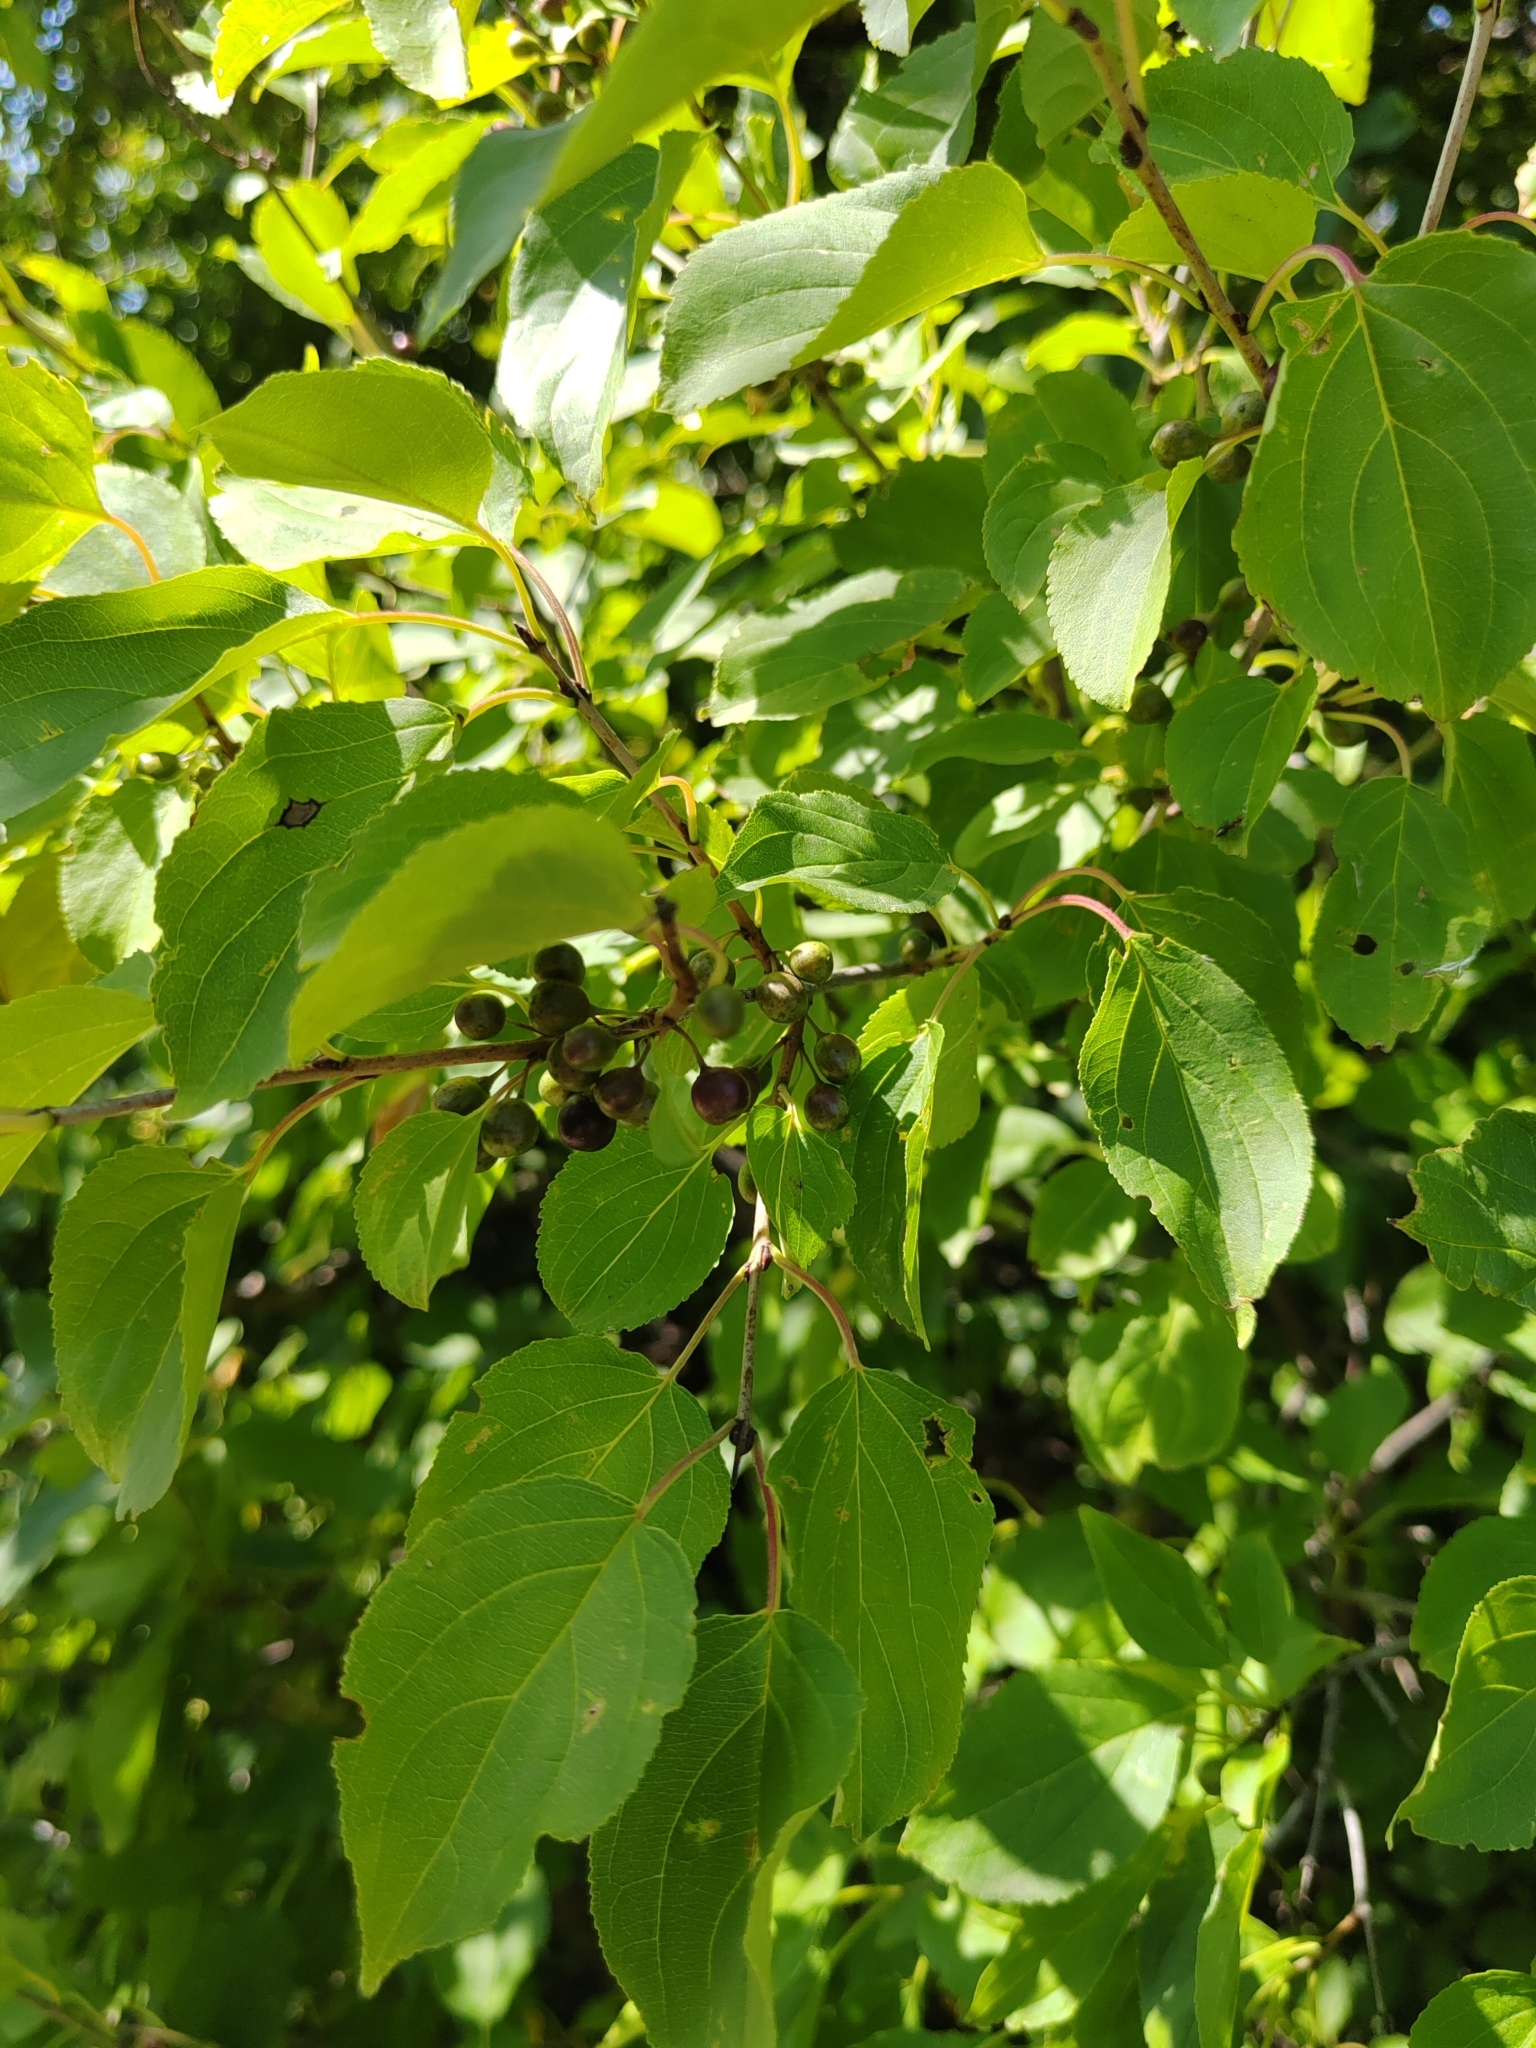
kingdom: Plantae
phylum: Tracheophyta
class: Magnoliopsida
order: Rosales
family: Rhamnaceae
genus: Rhamnus
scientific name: Rhamnus cathartica
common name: Common buckthorn
